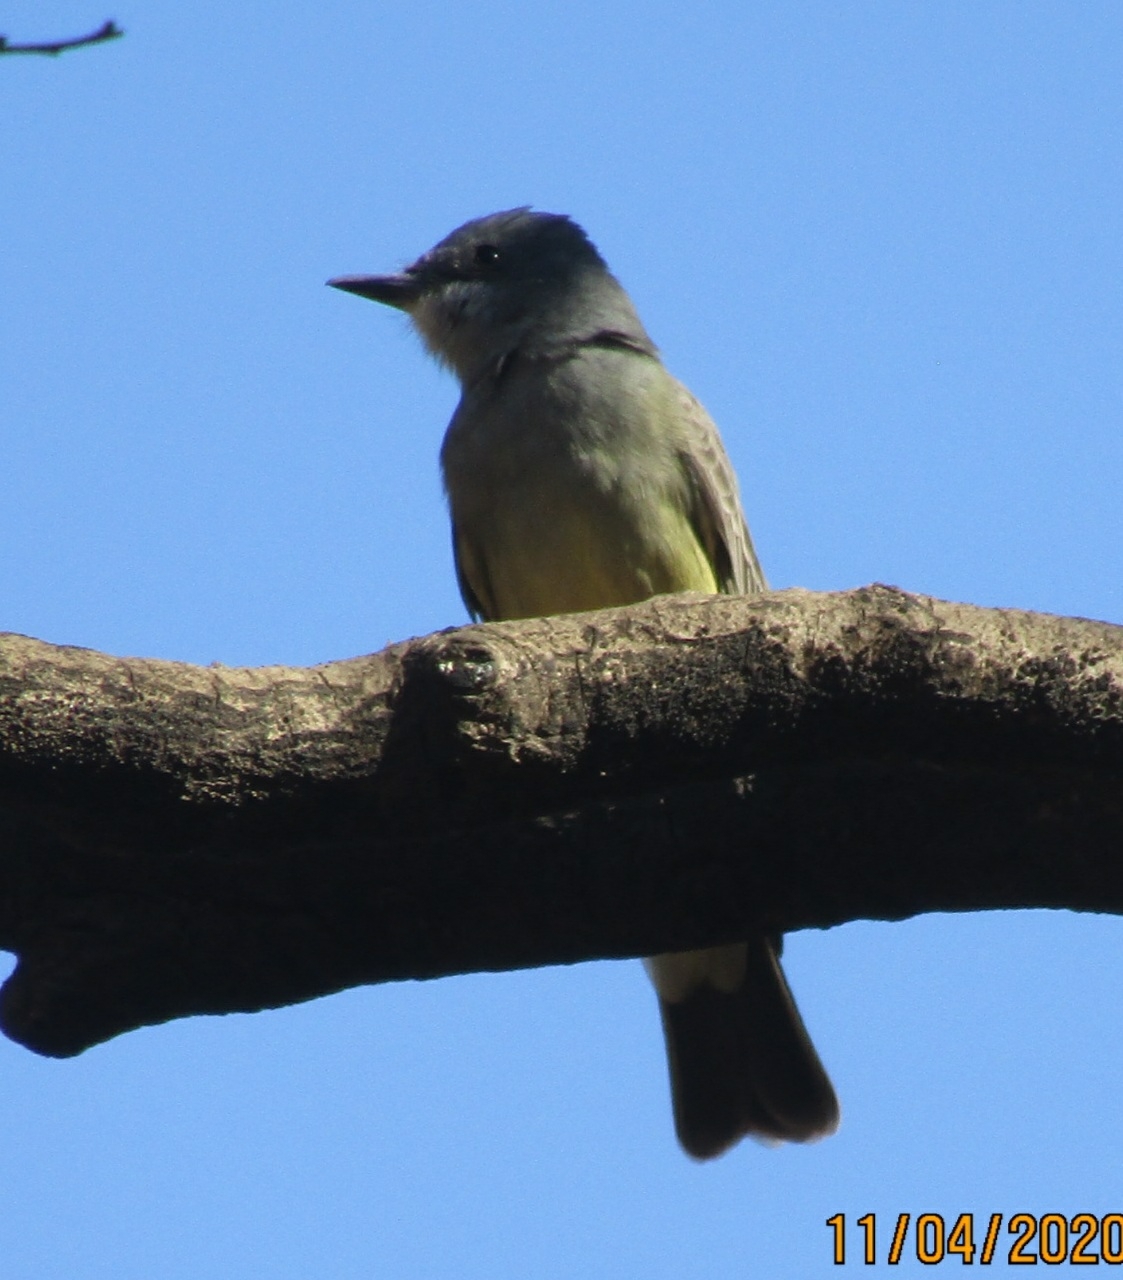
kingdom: Animalia
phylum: Chordata
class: Aves
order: Passeriformes
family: Tyrannidae
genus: Tyrannus
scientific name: Tyrannus vociferans
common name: Cassin's kingbird
